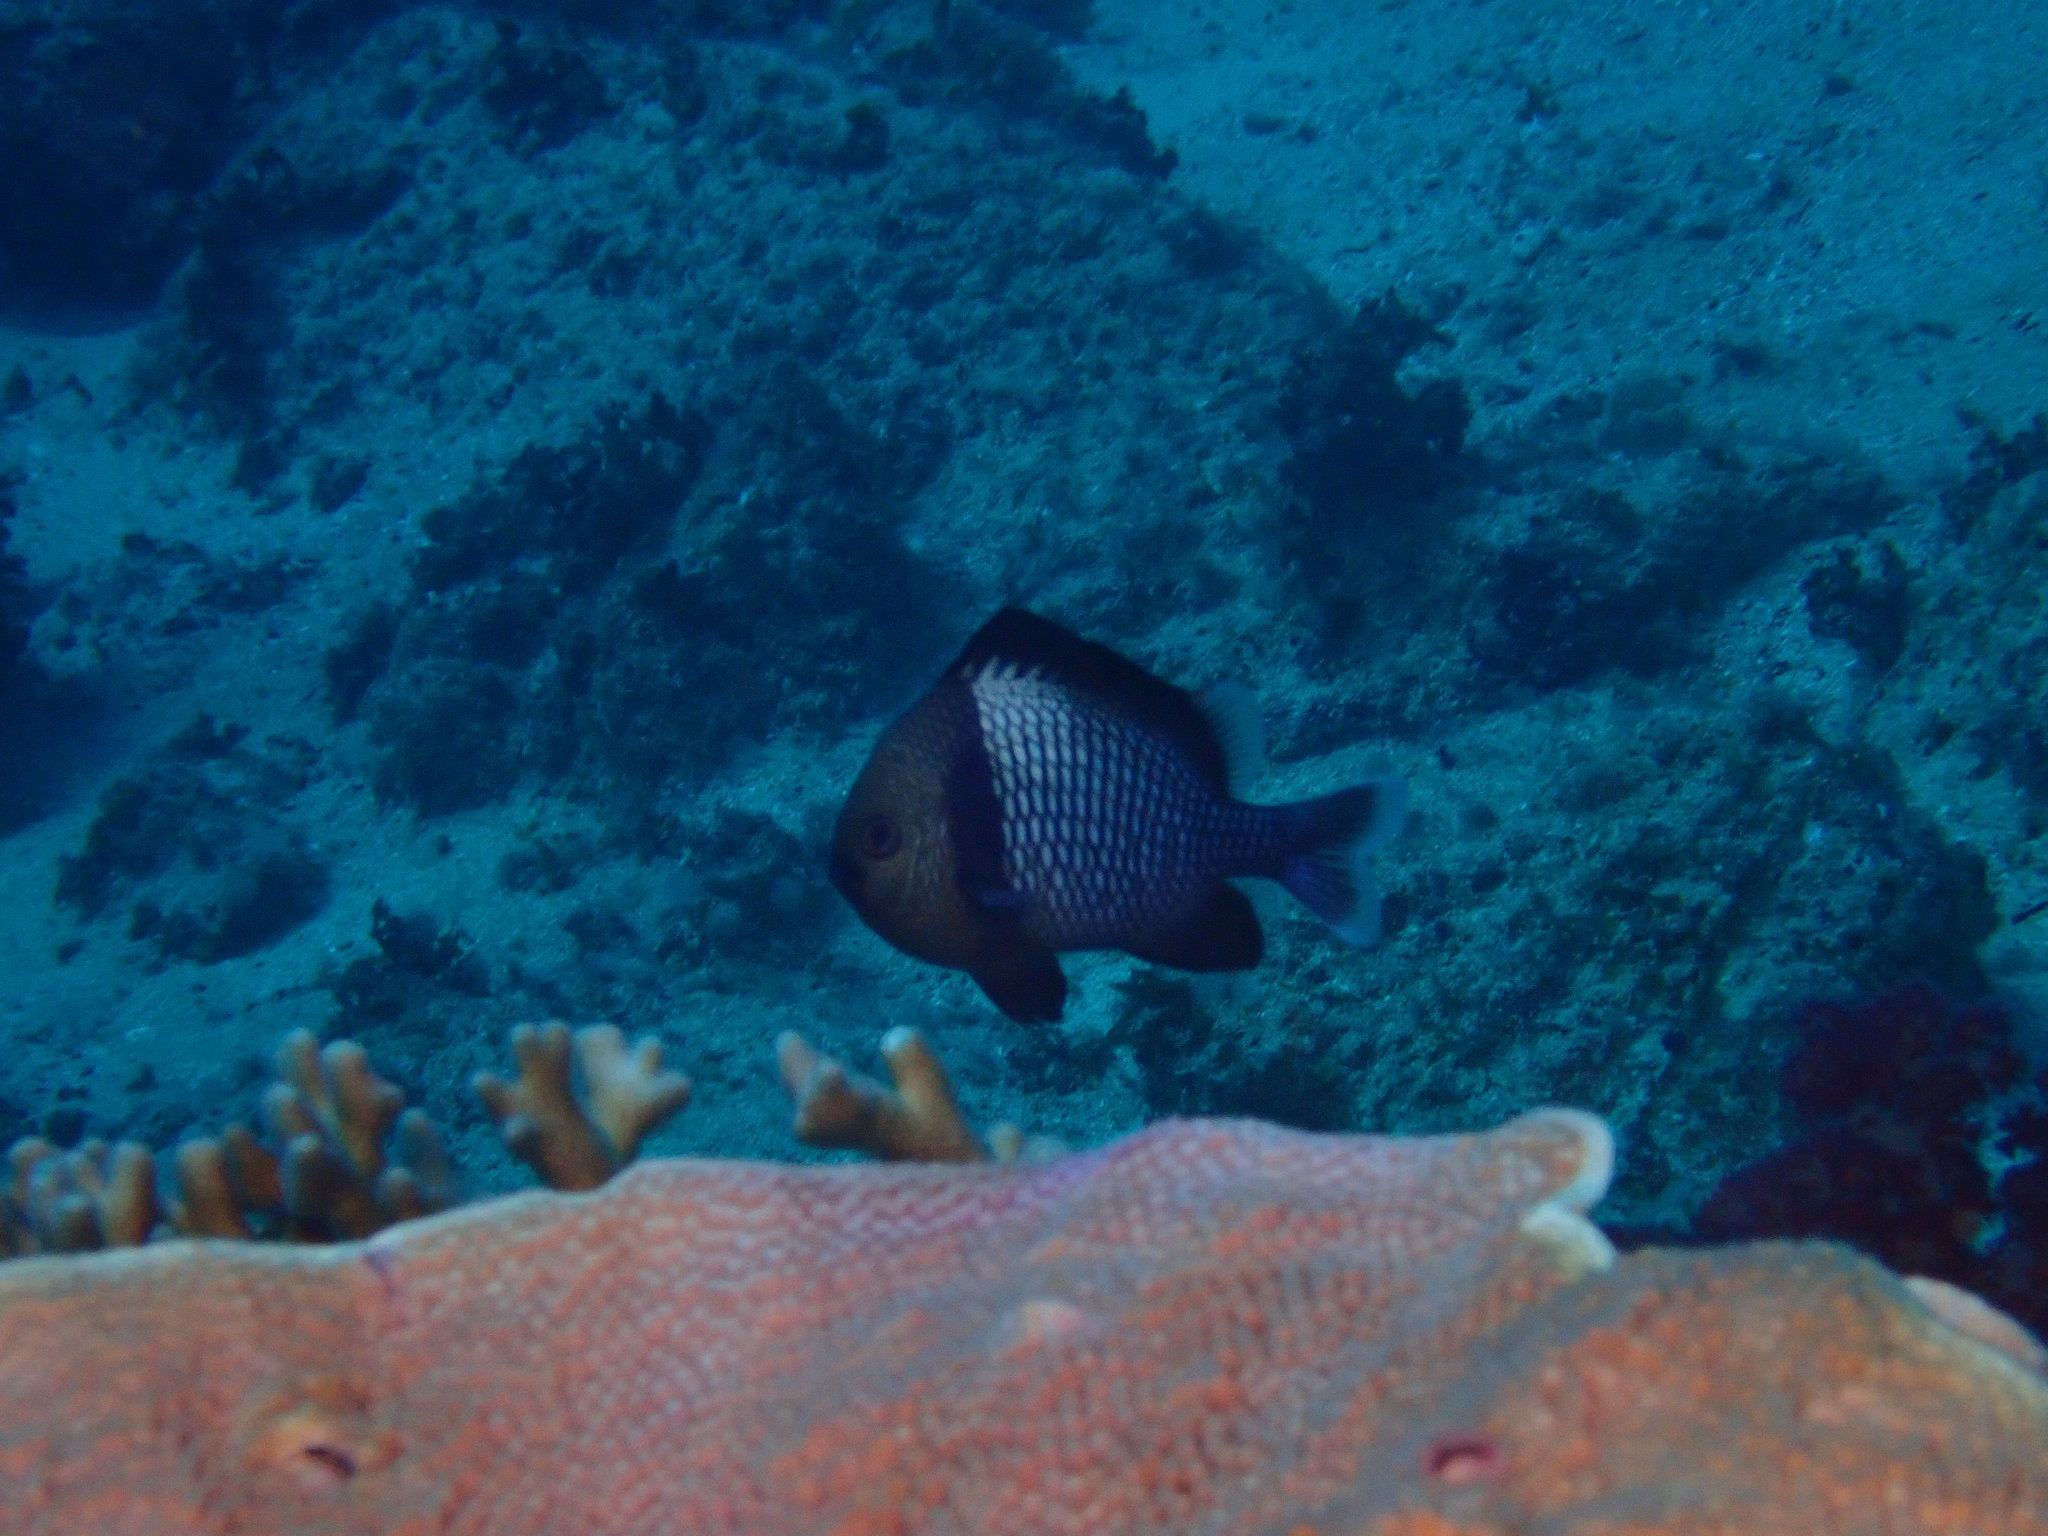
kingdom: Animalia
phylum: Chordata
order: Perciformes
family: Pomacentridae
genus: Dascyllus
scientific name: Dascyllus reticulatus
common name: Reticulated dascyllus
